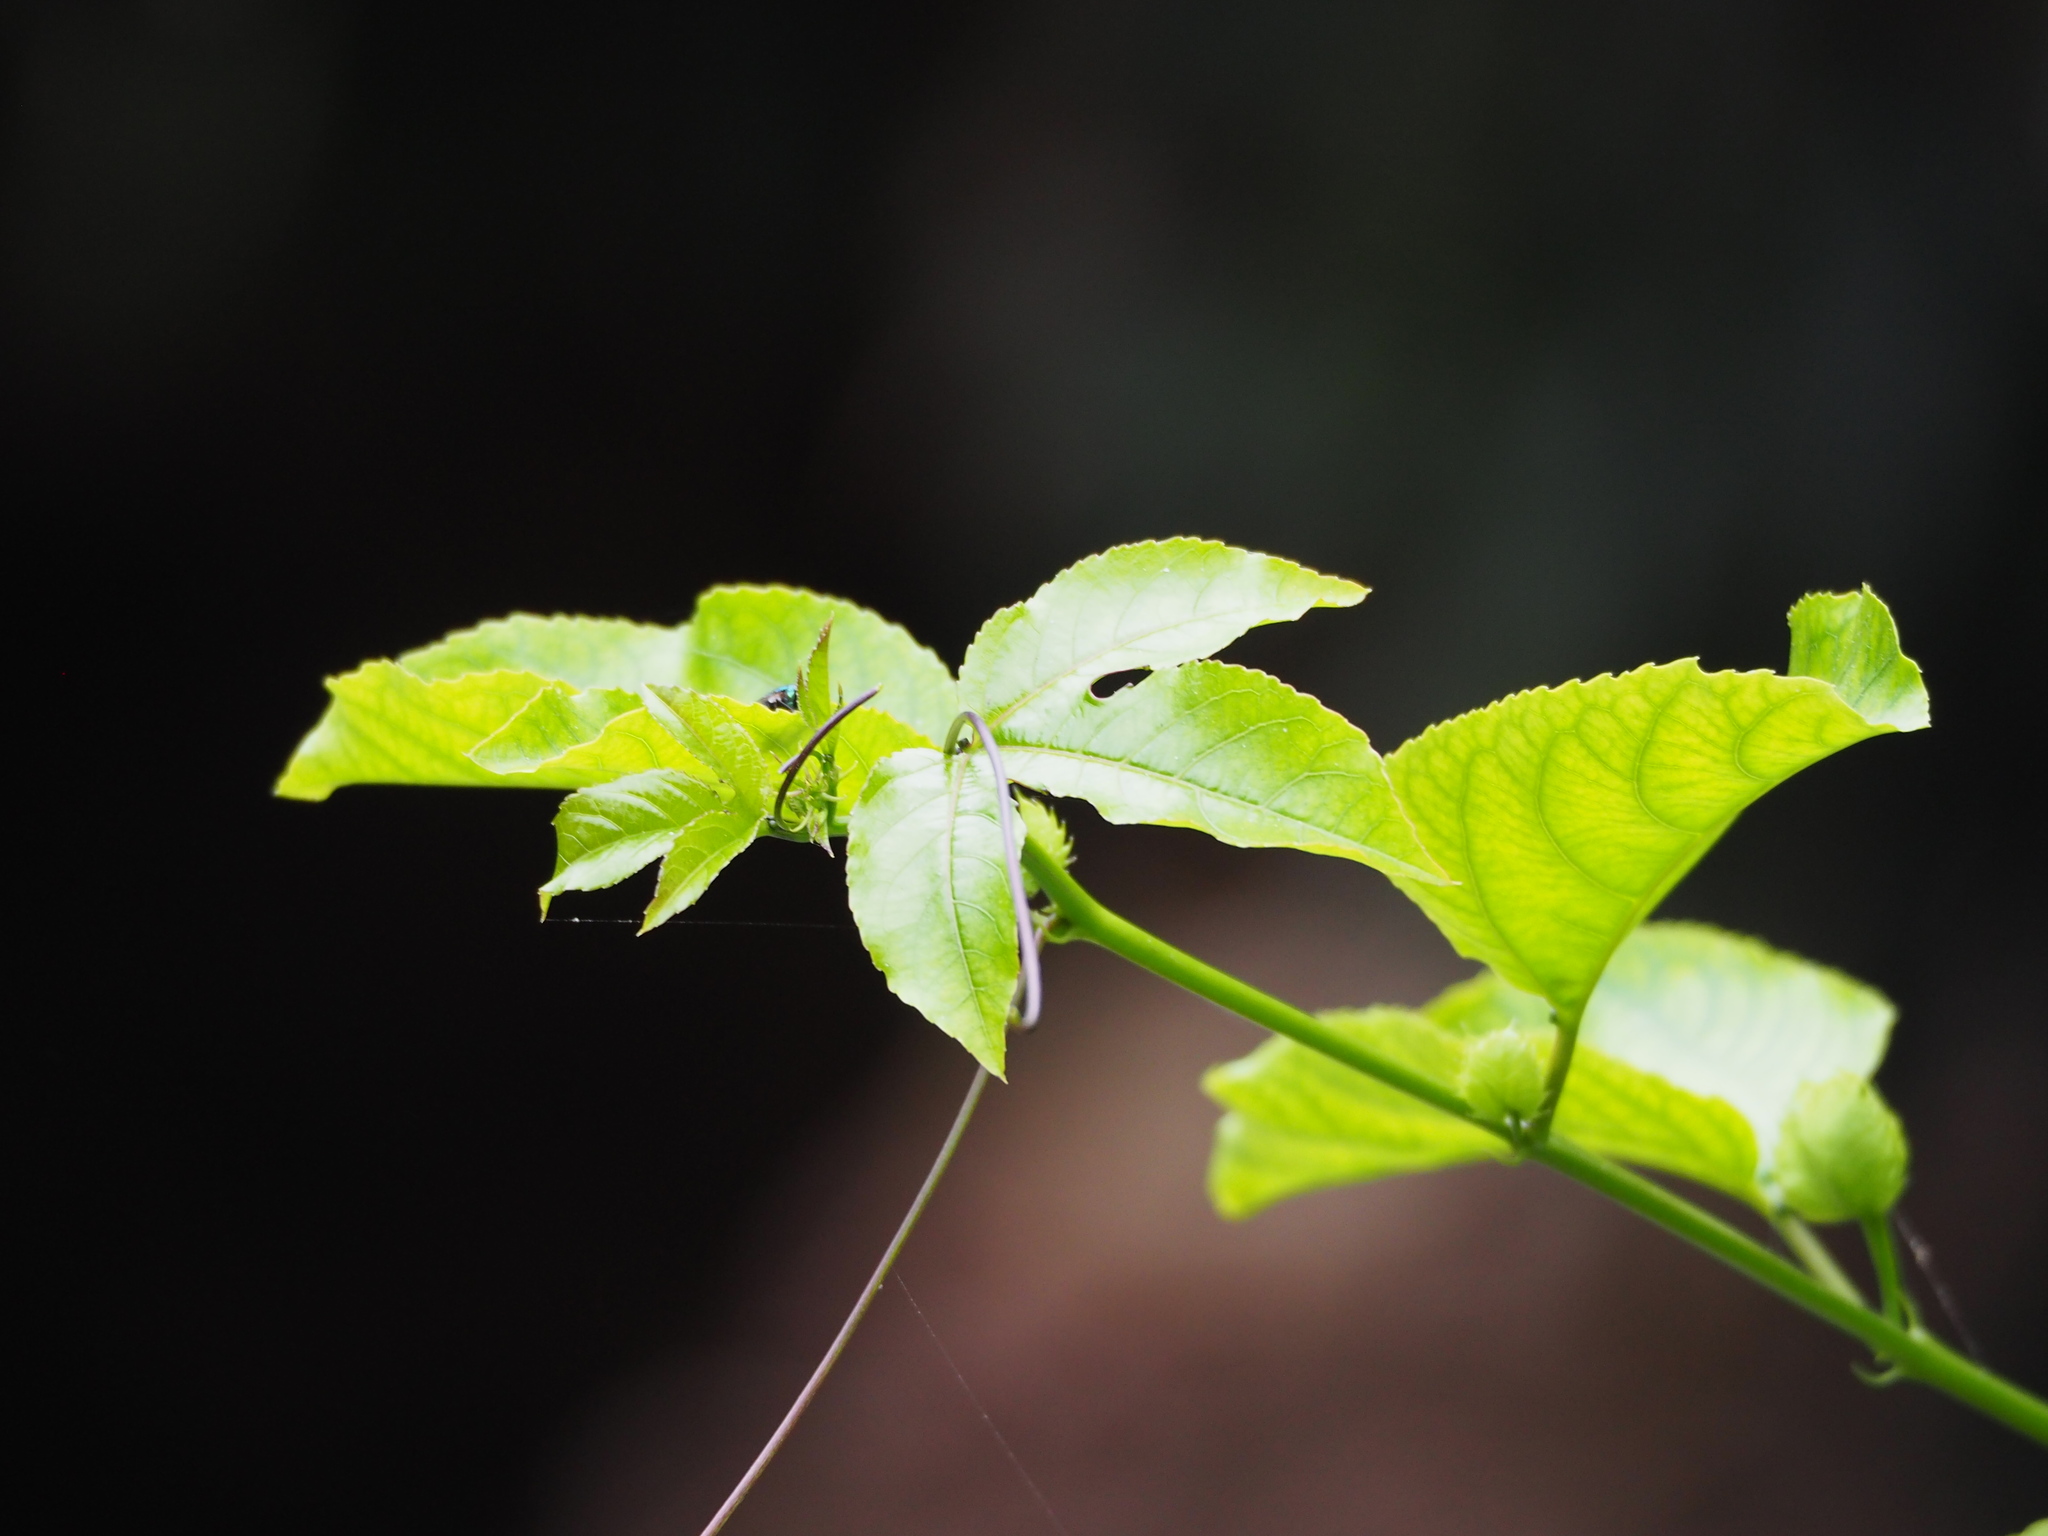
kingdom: Plantae
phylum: Tracheophyta
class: Magnoliopsida
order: Malpighiales
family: Passifloraceae
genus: Passiflora
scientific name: Passiflora edulis
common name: Purple granadilla
